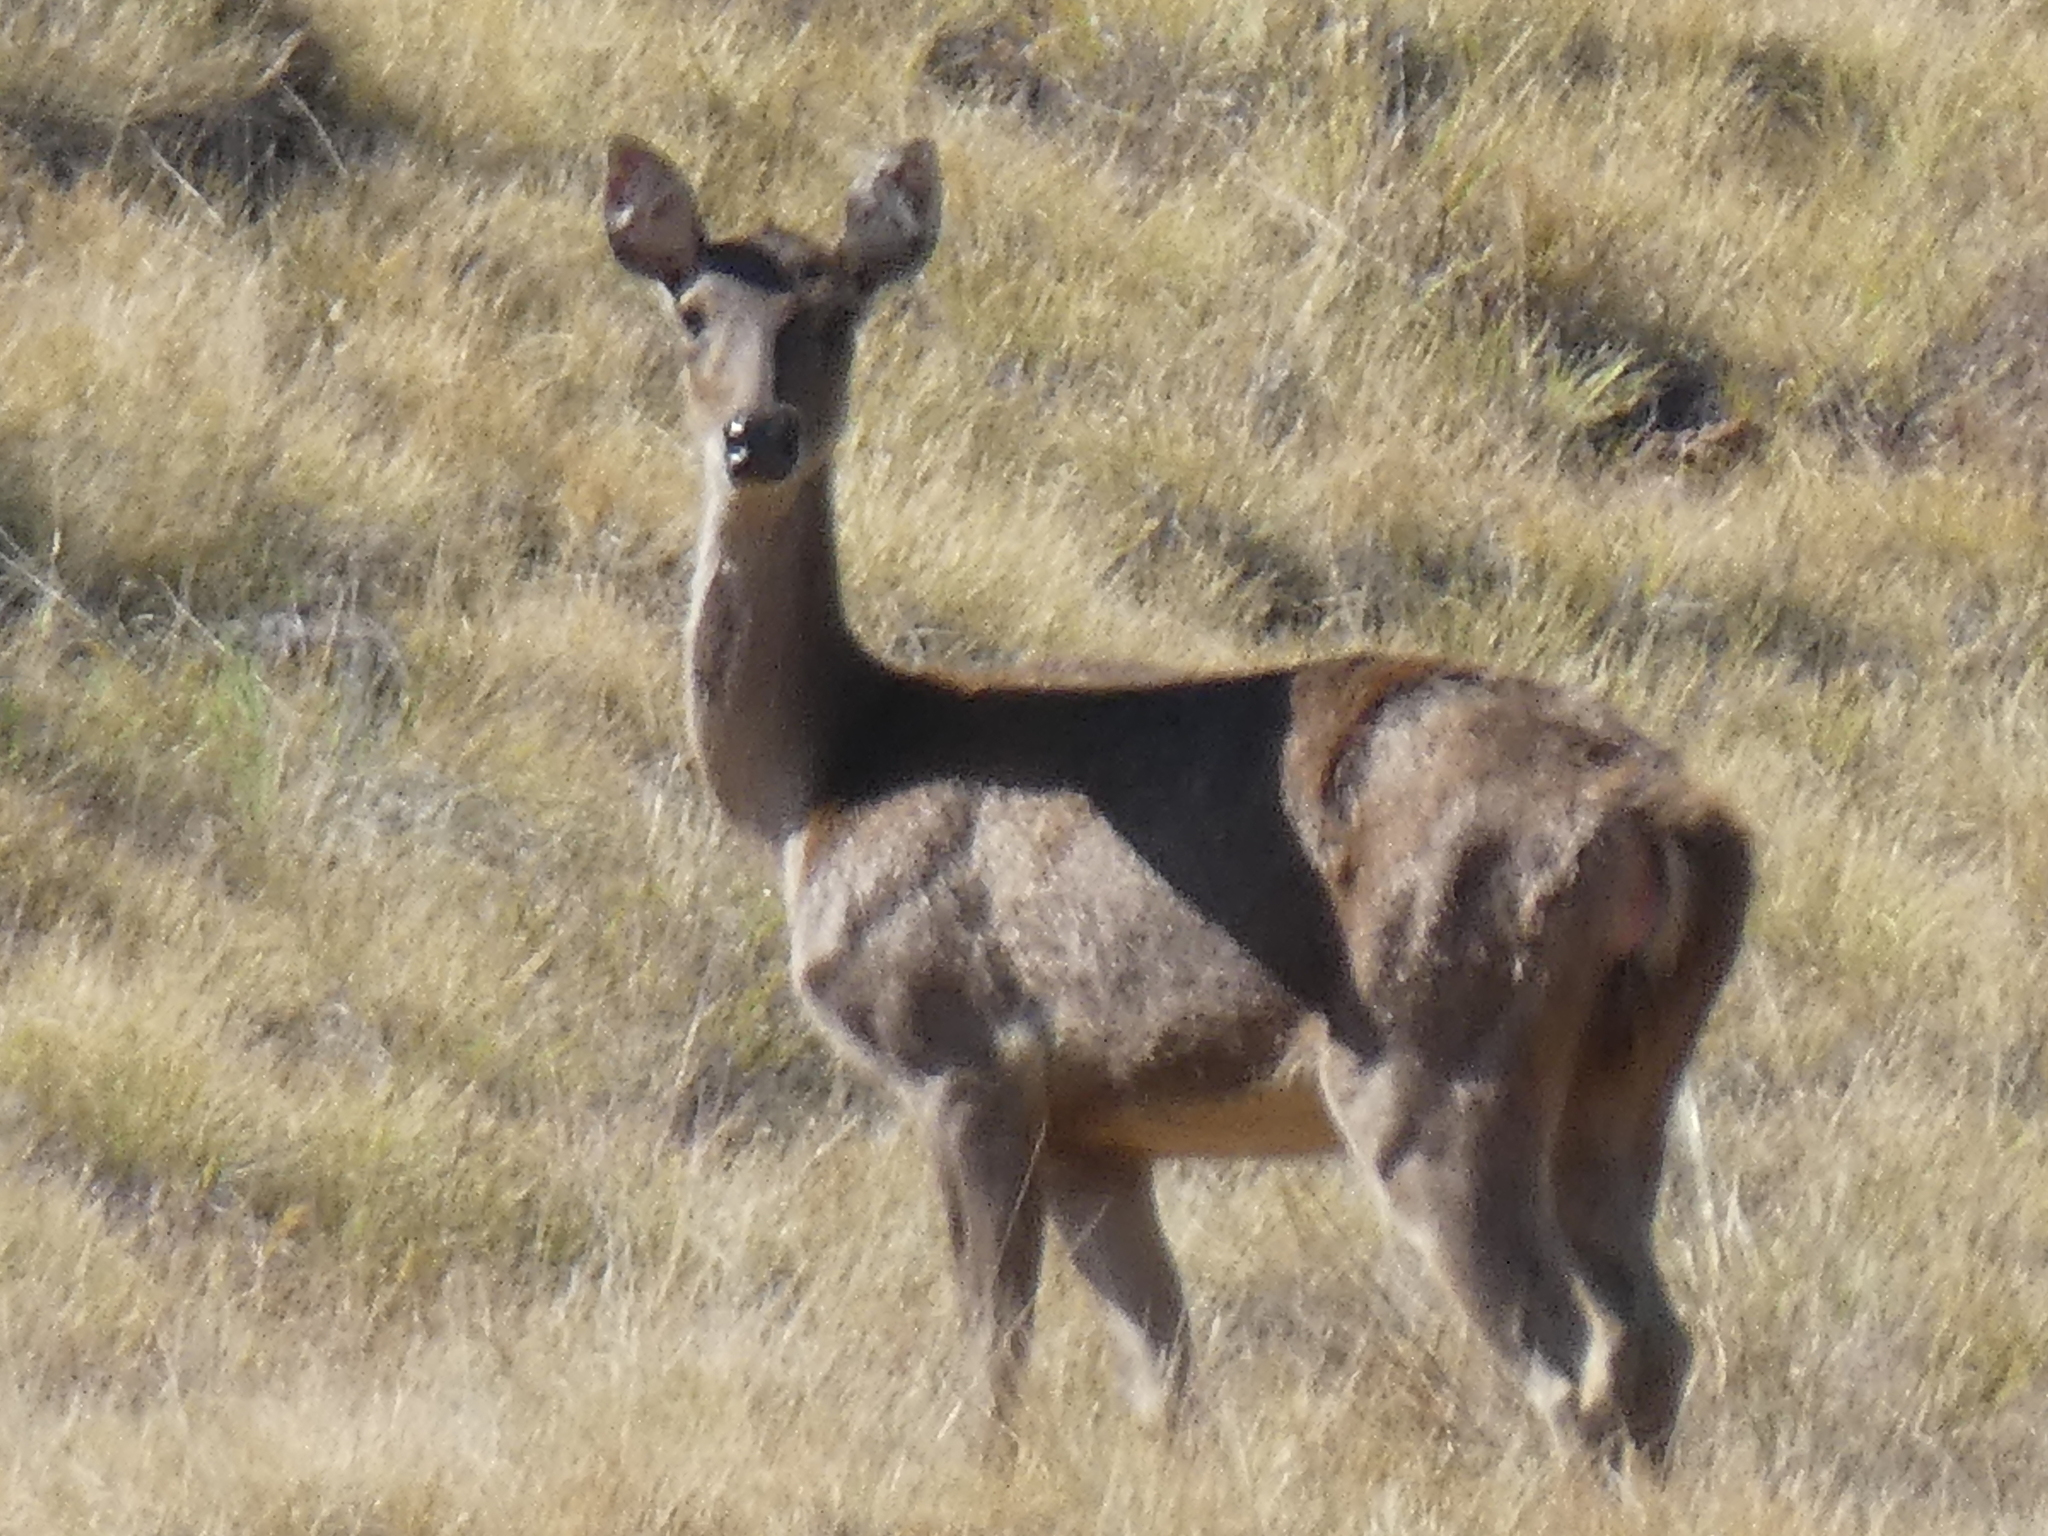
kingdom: Animalia
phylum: Chordata
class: Mammalia
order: Artiodactyla
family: Cervidae
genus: Rusa
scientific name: Rusa timorensis
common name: Javan rusa
